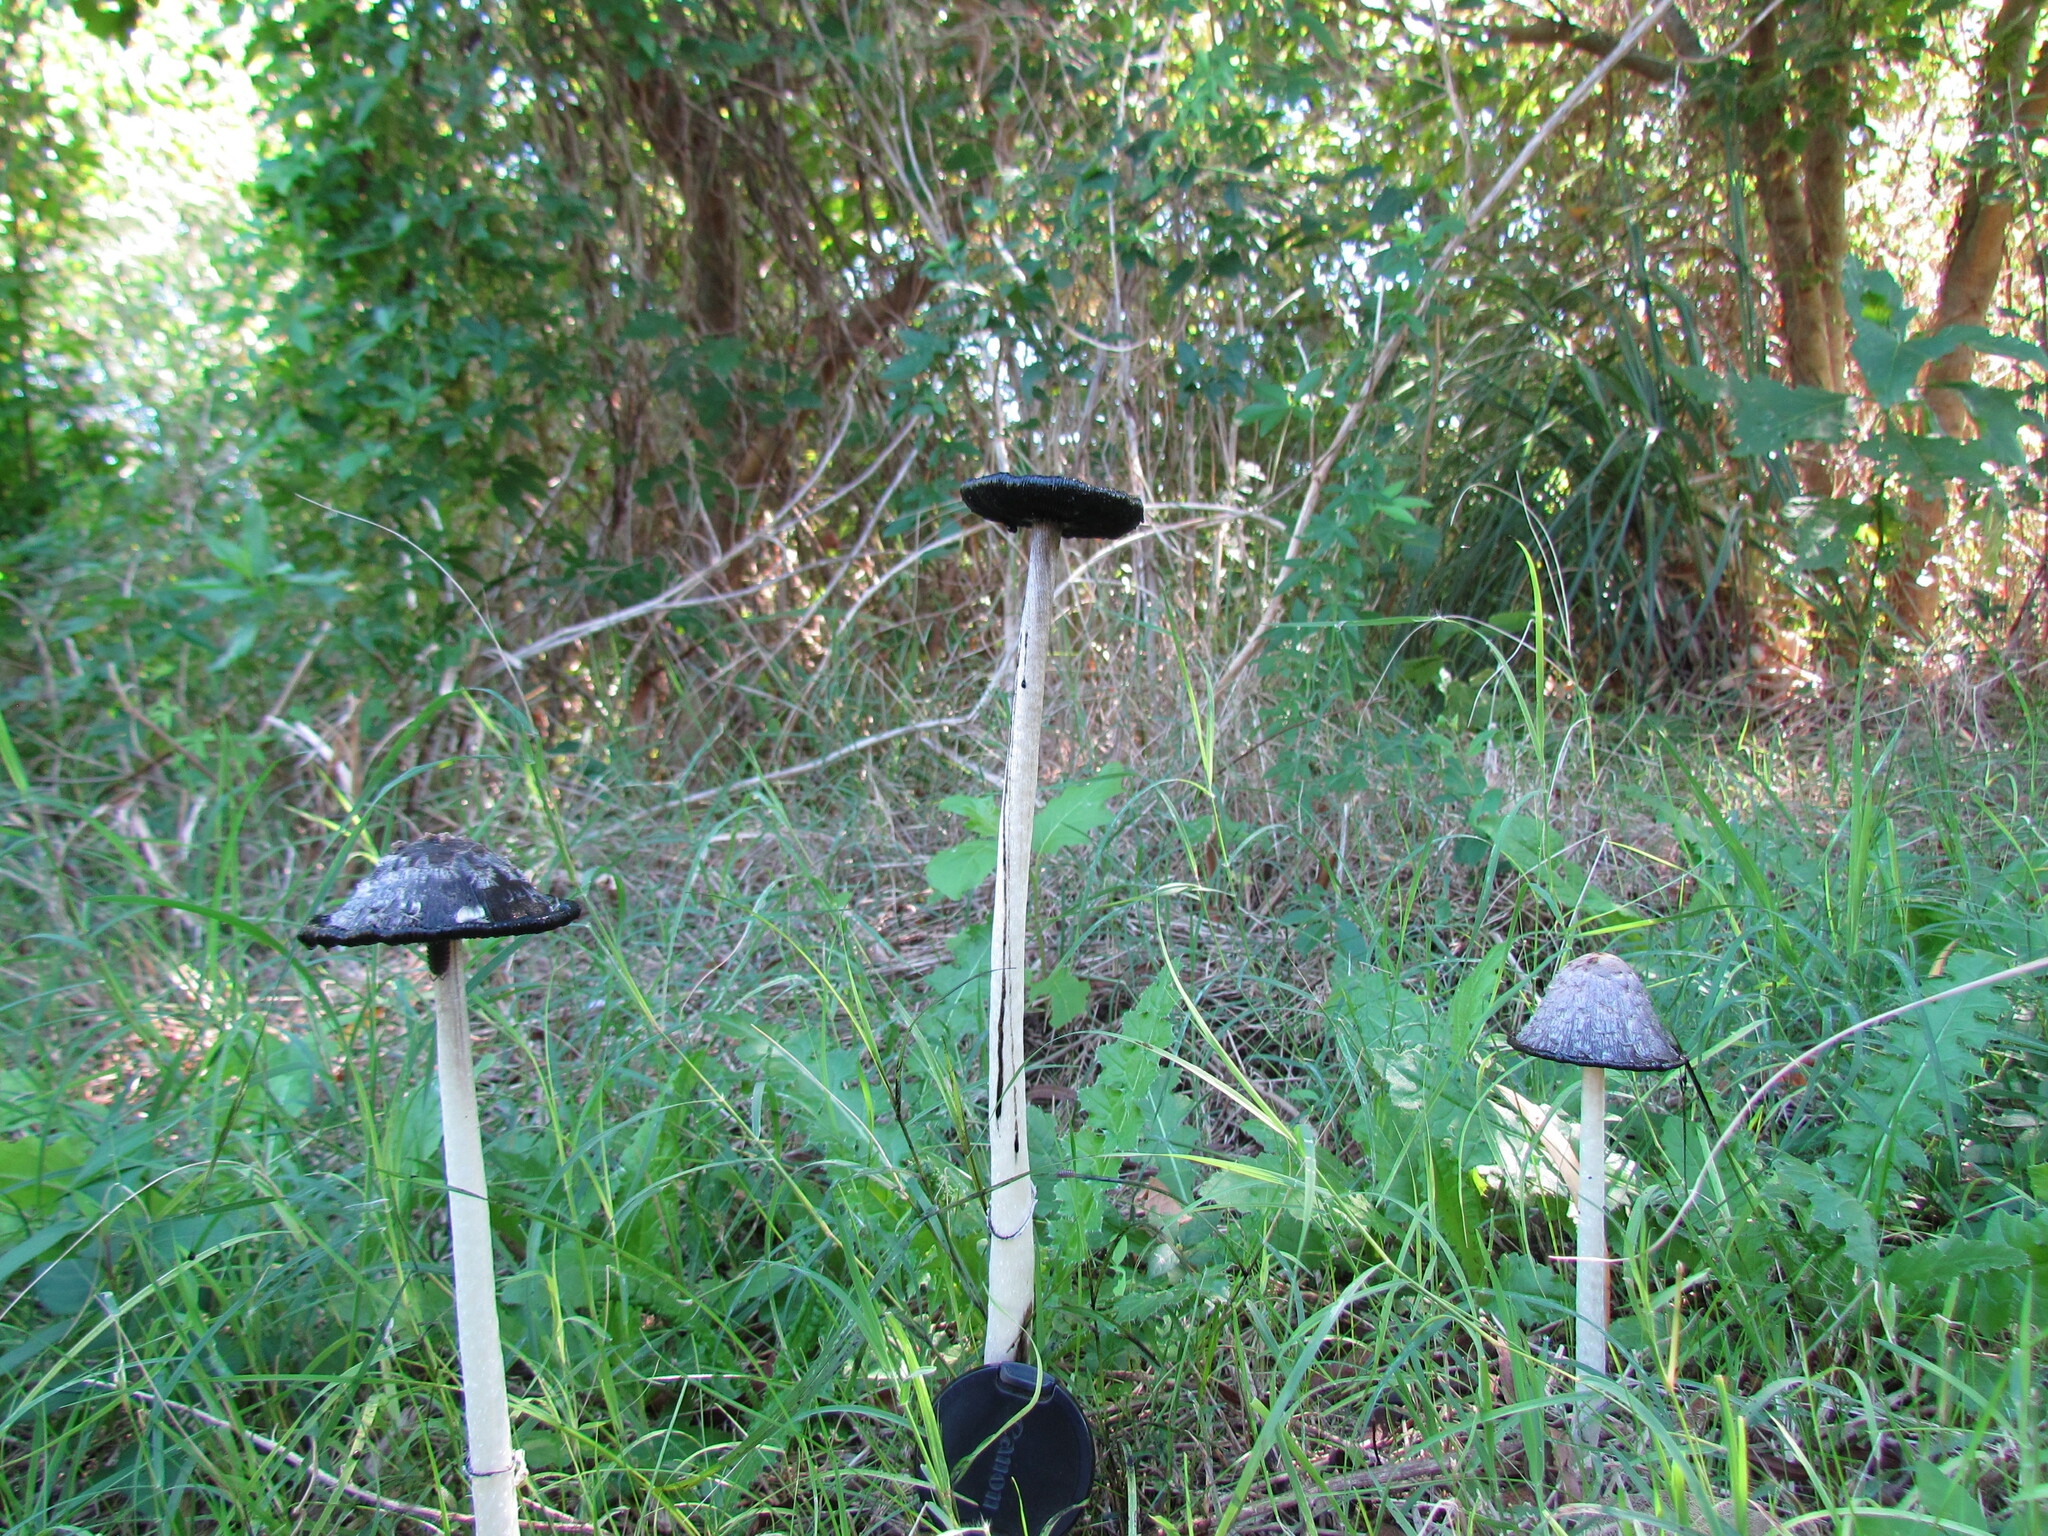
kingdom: Fungi
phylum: Basidiomycota
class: Agaricomycetes
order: Agaricales
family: Agaricaceae
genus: Coprinus
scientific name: Coprinus comatus
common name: Lawyer's wig
